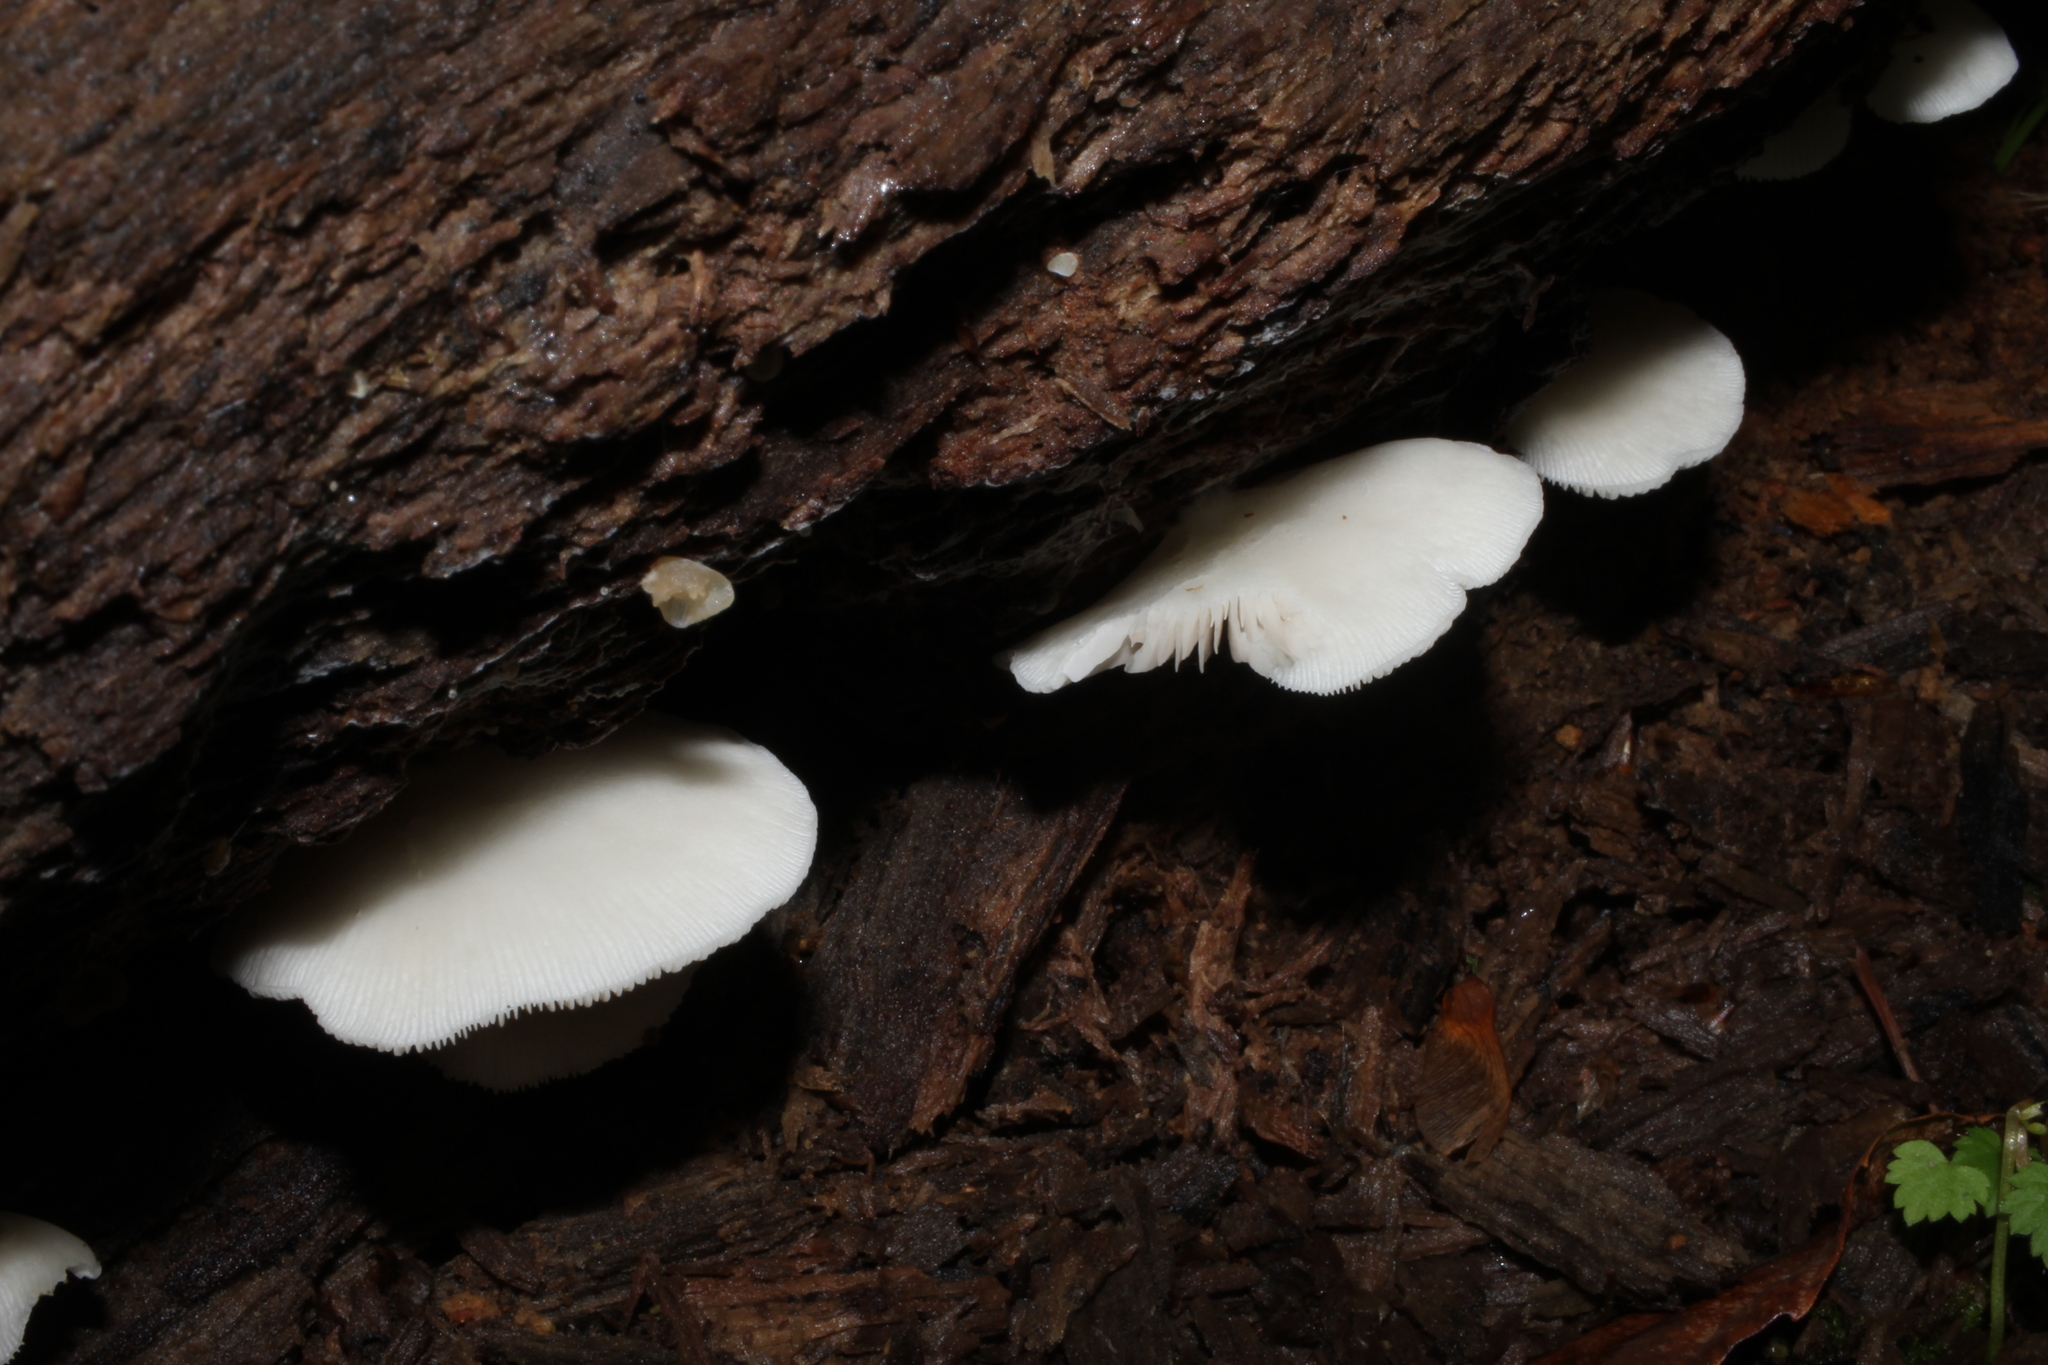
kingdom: Fungi
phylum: Basidiomycota
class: Agaricomycetes
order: Agaricales
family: Crepidotaceae
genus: Crepidotus
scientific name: Crepidotus applanatus
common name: Flat crep
